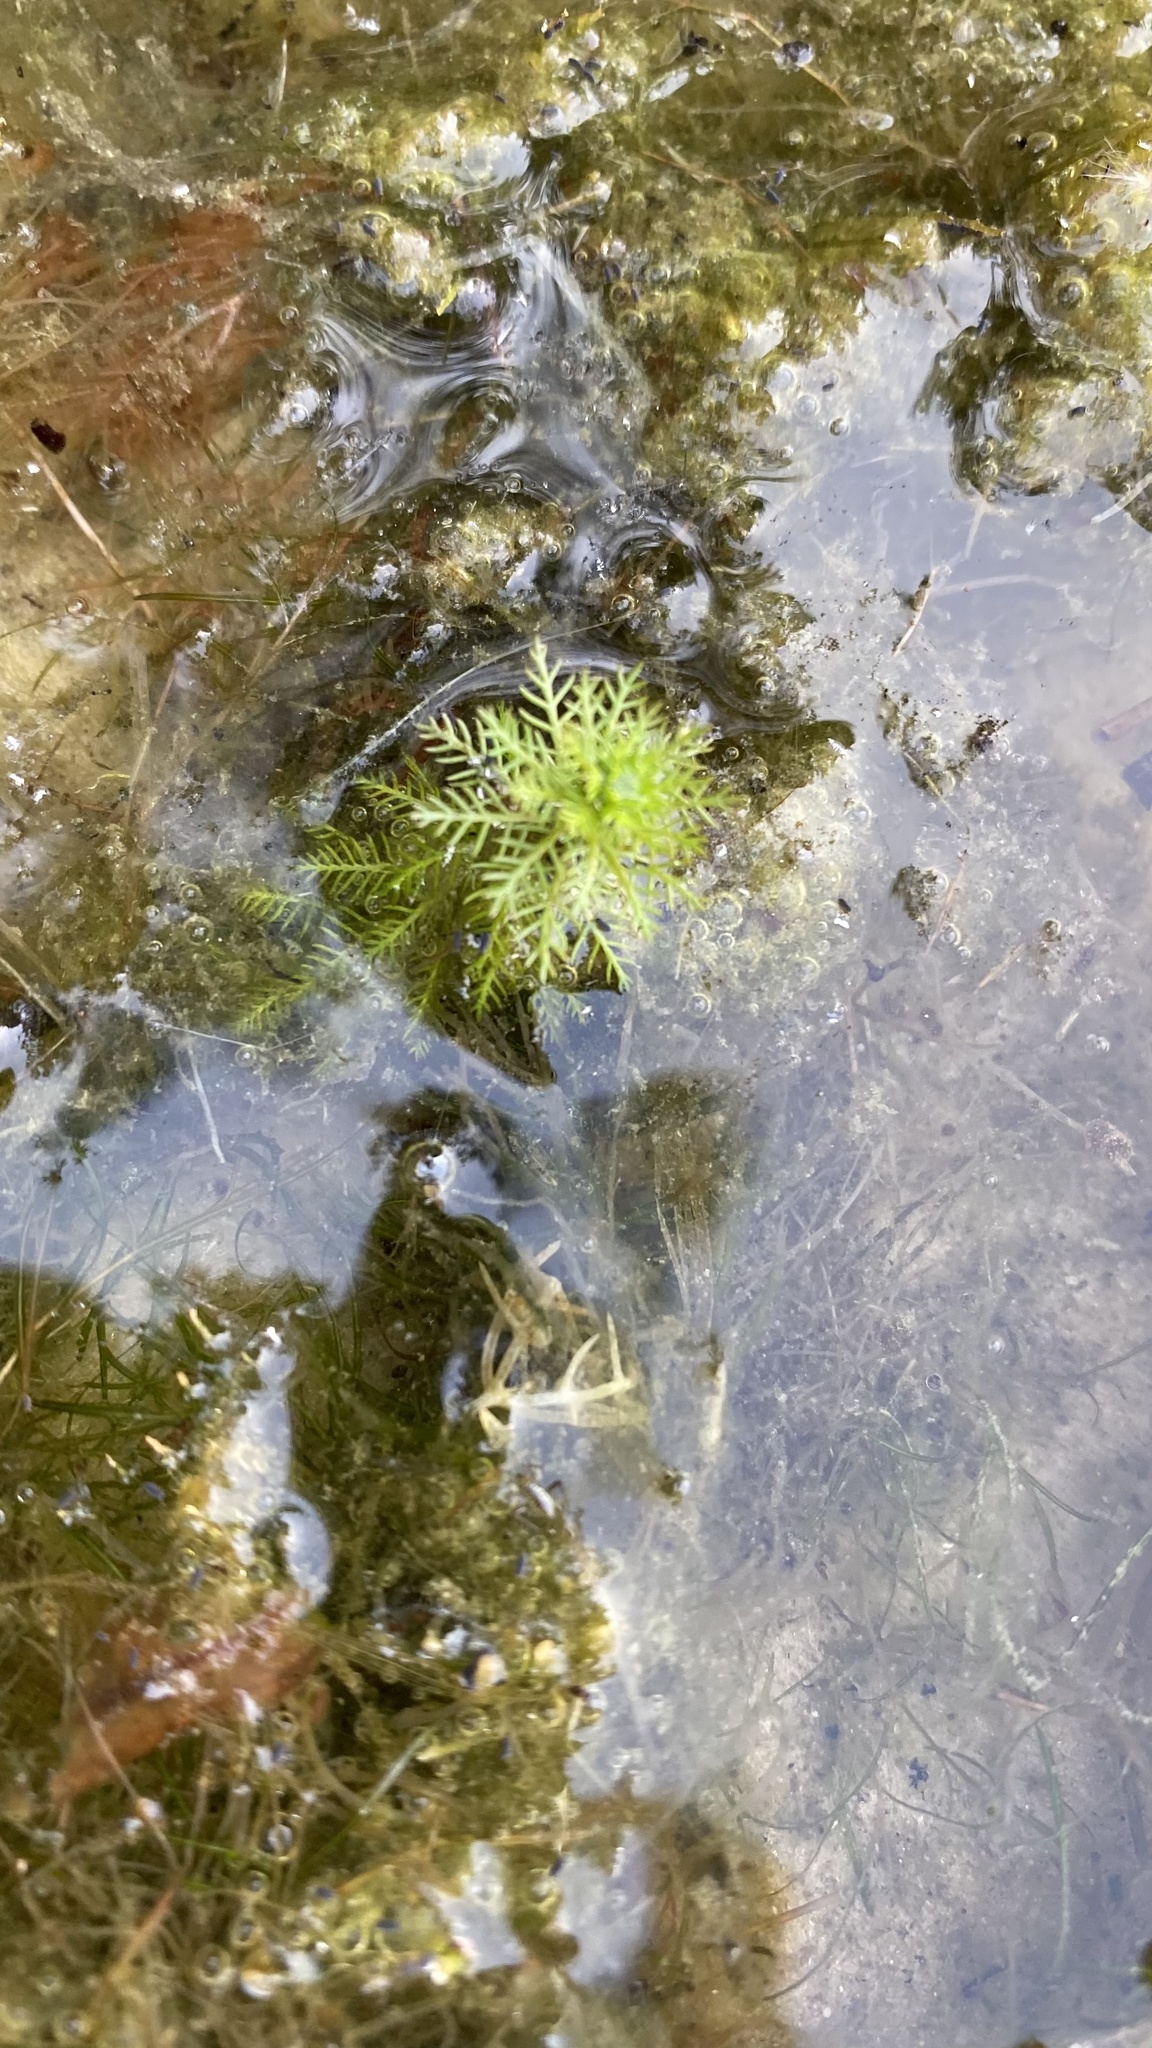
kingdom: Plantae
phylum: Tracheophyta
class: Magnoliopsida
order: Saxifragales
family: Haloragaceae
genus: Myriophyllum
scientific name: Myriophyllum verticillatum
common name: Whorled water-milfoil
